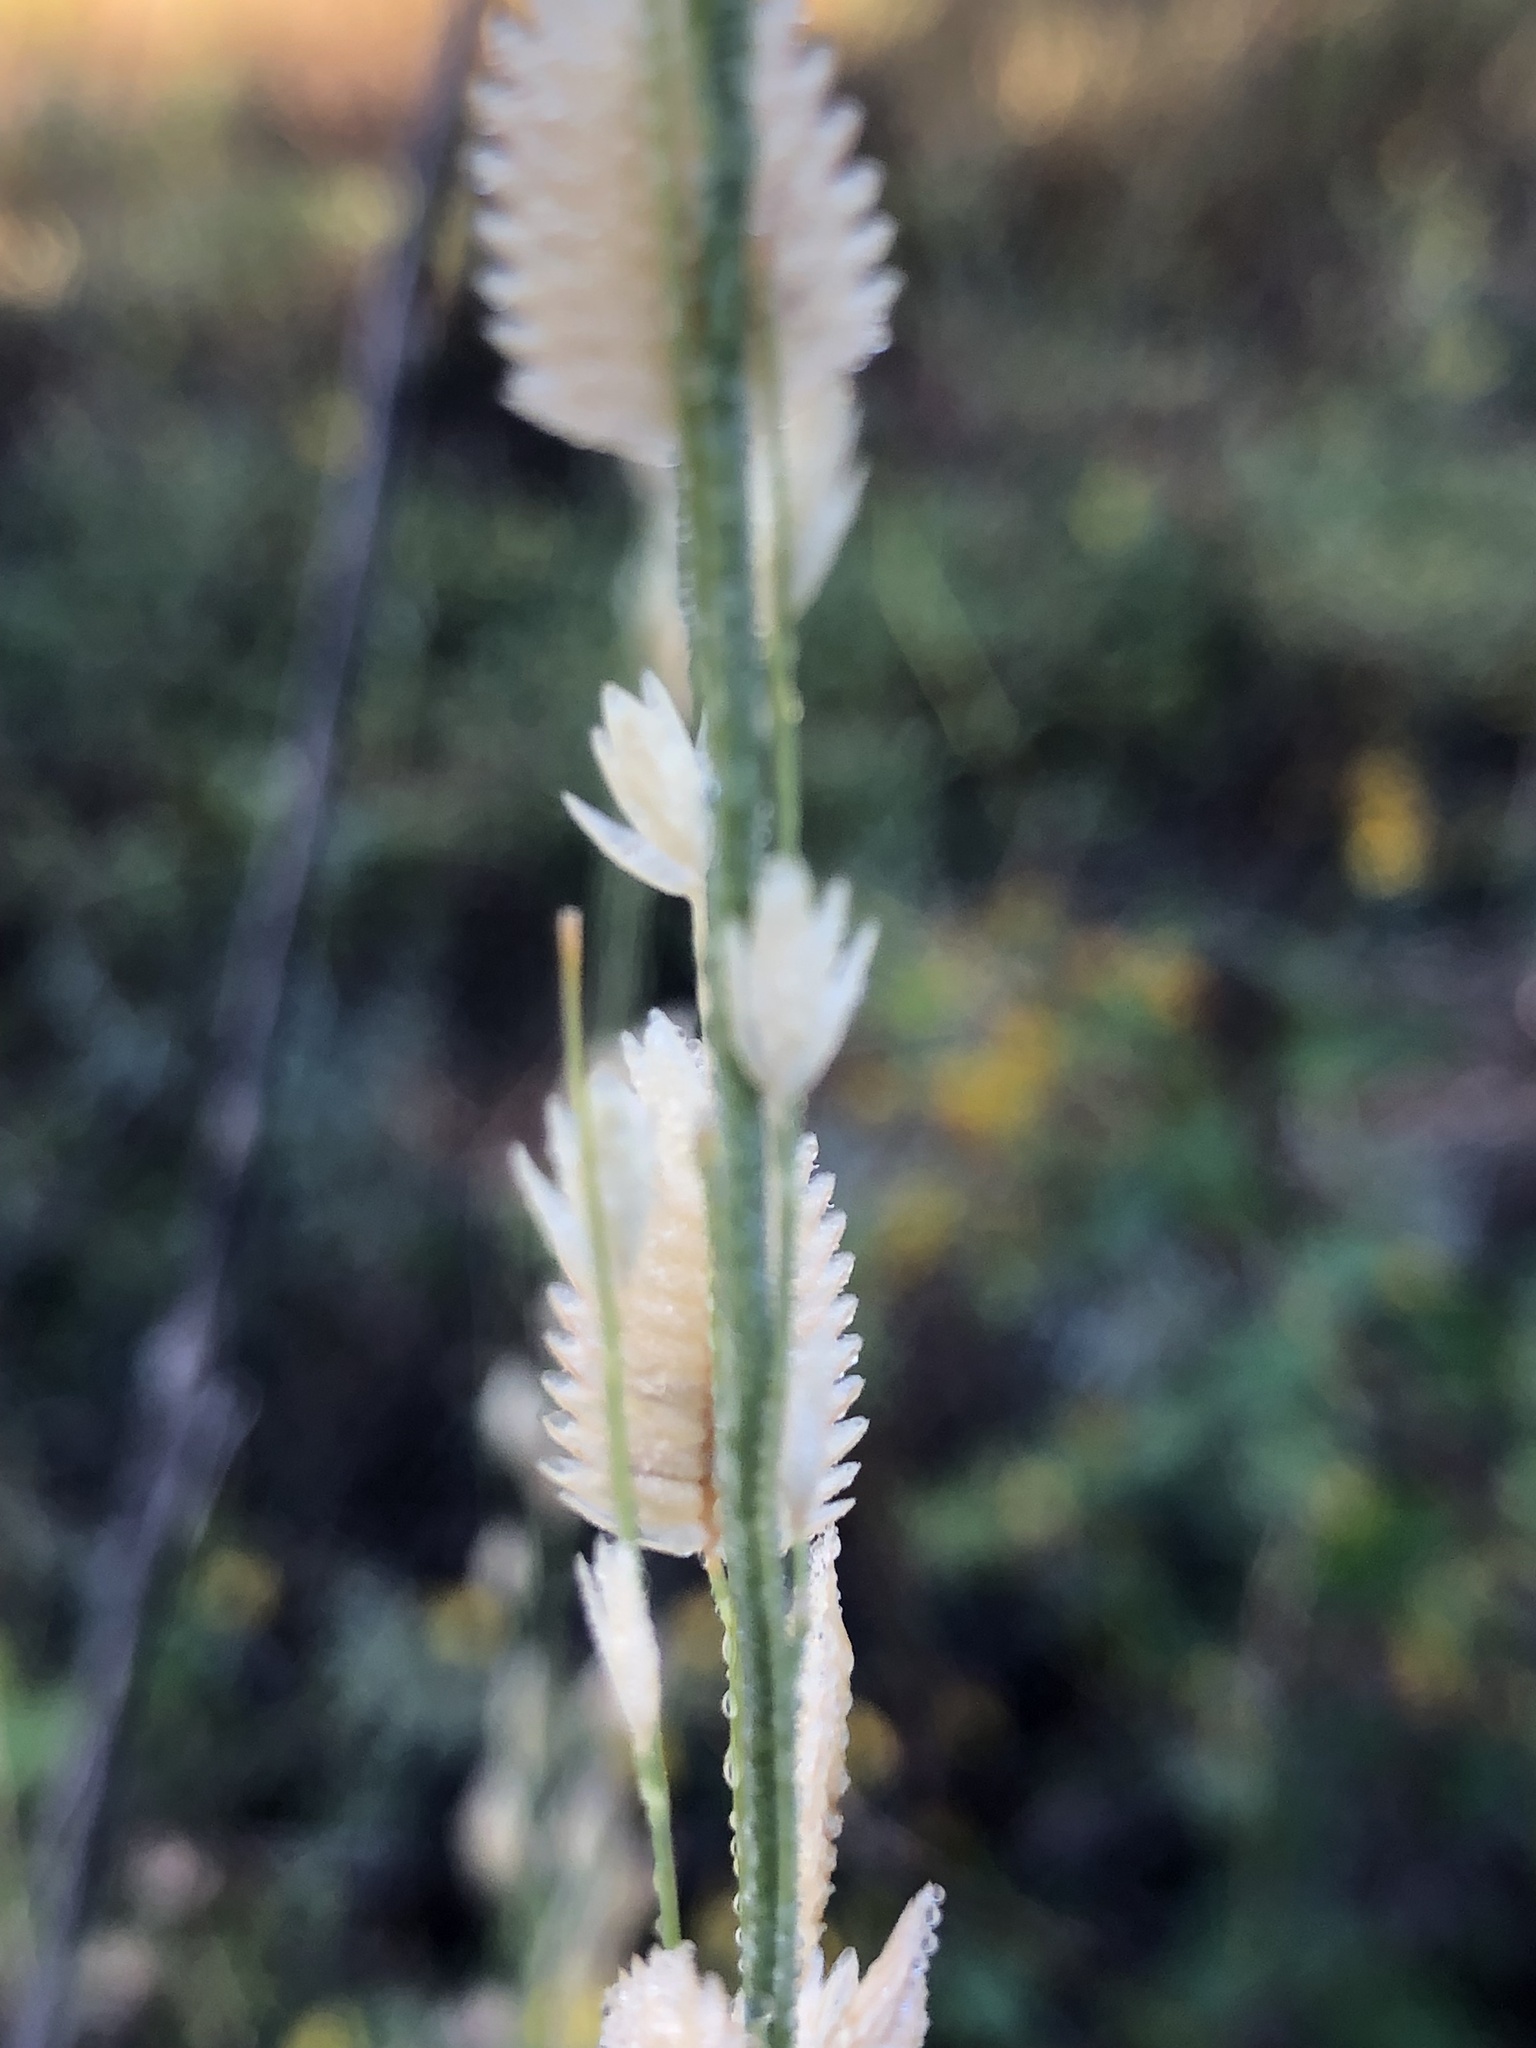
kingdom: Plantae
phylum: Tracheophyta
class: Liliopsida
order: Poales
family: Poaceae
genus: Eragrostis
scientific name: Eragrostis superba
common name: Wilman lovegrass
